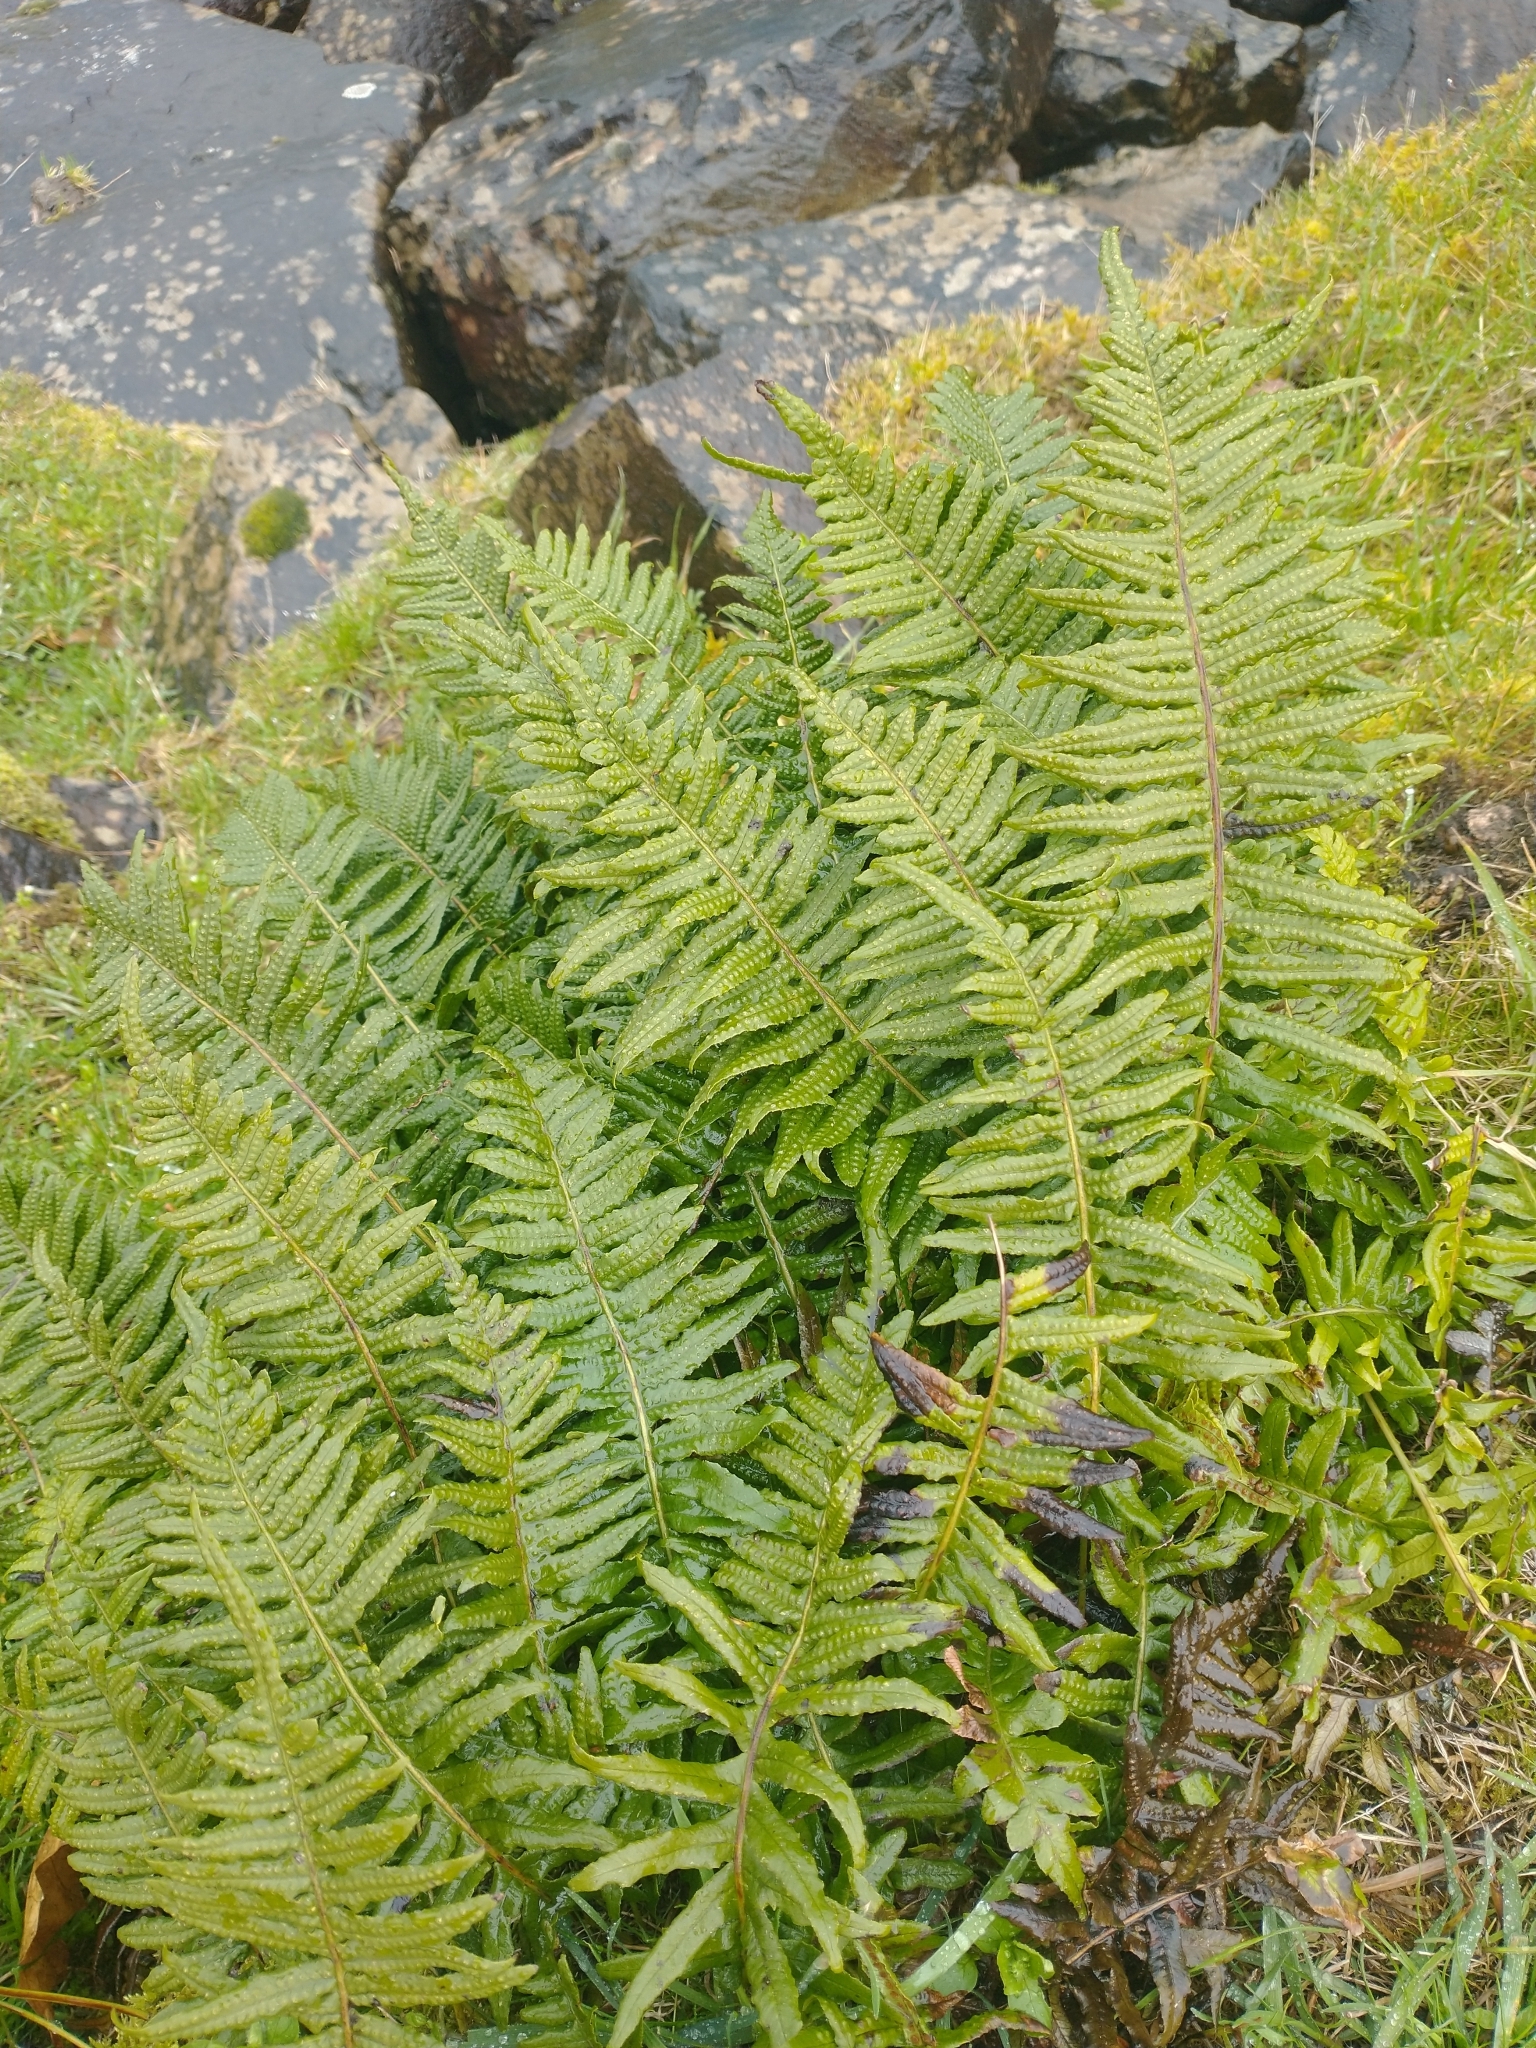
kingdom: Plantae
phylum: Tracheophyta
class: Polypodiopsida
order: Polypodiales
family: Polypodiaceae
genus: Polypodium
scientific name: Polypodium glycyrrhiza
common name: Licorice fern
